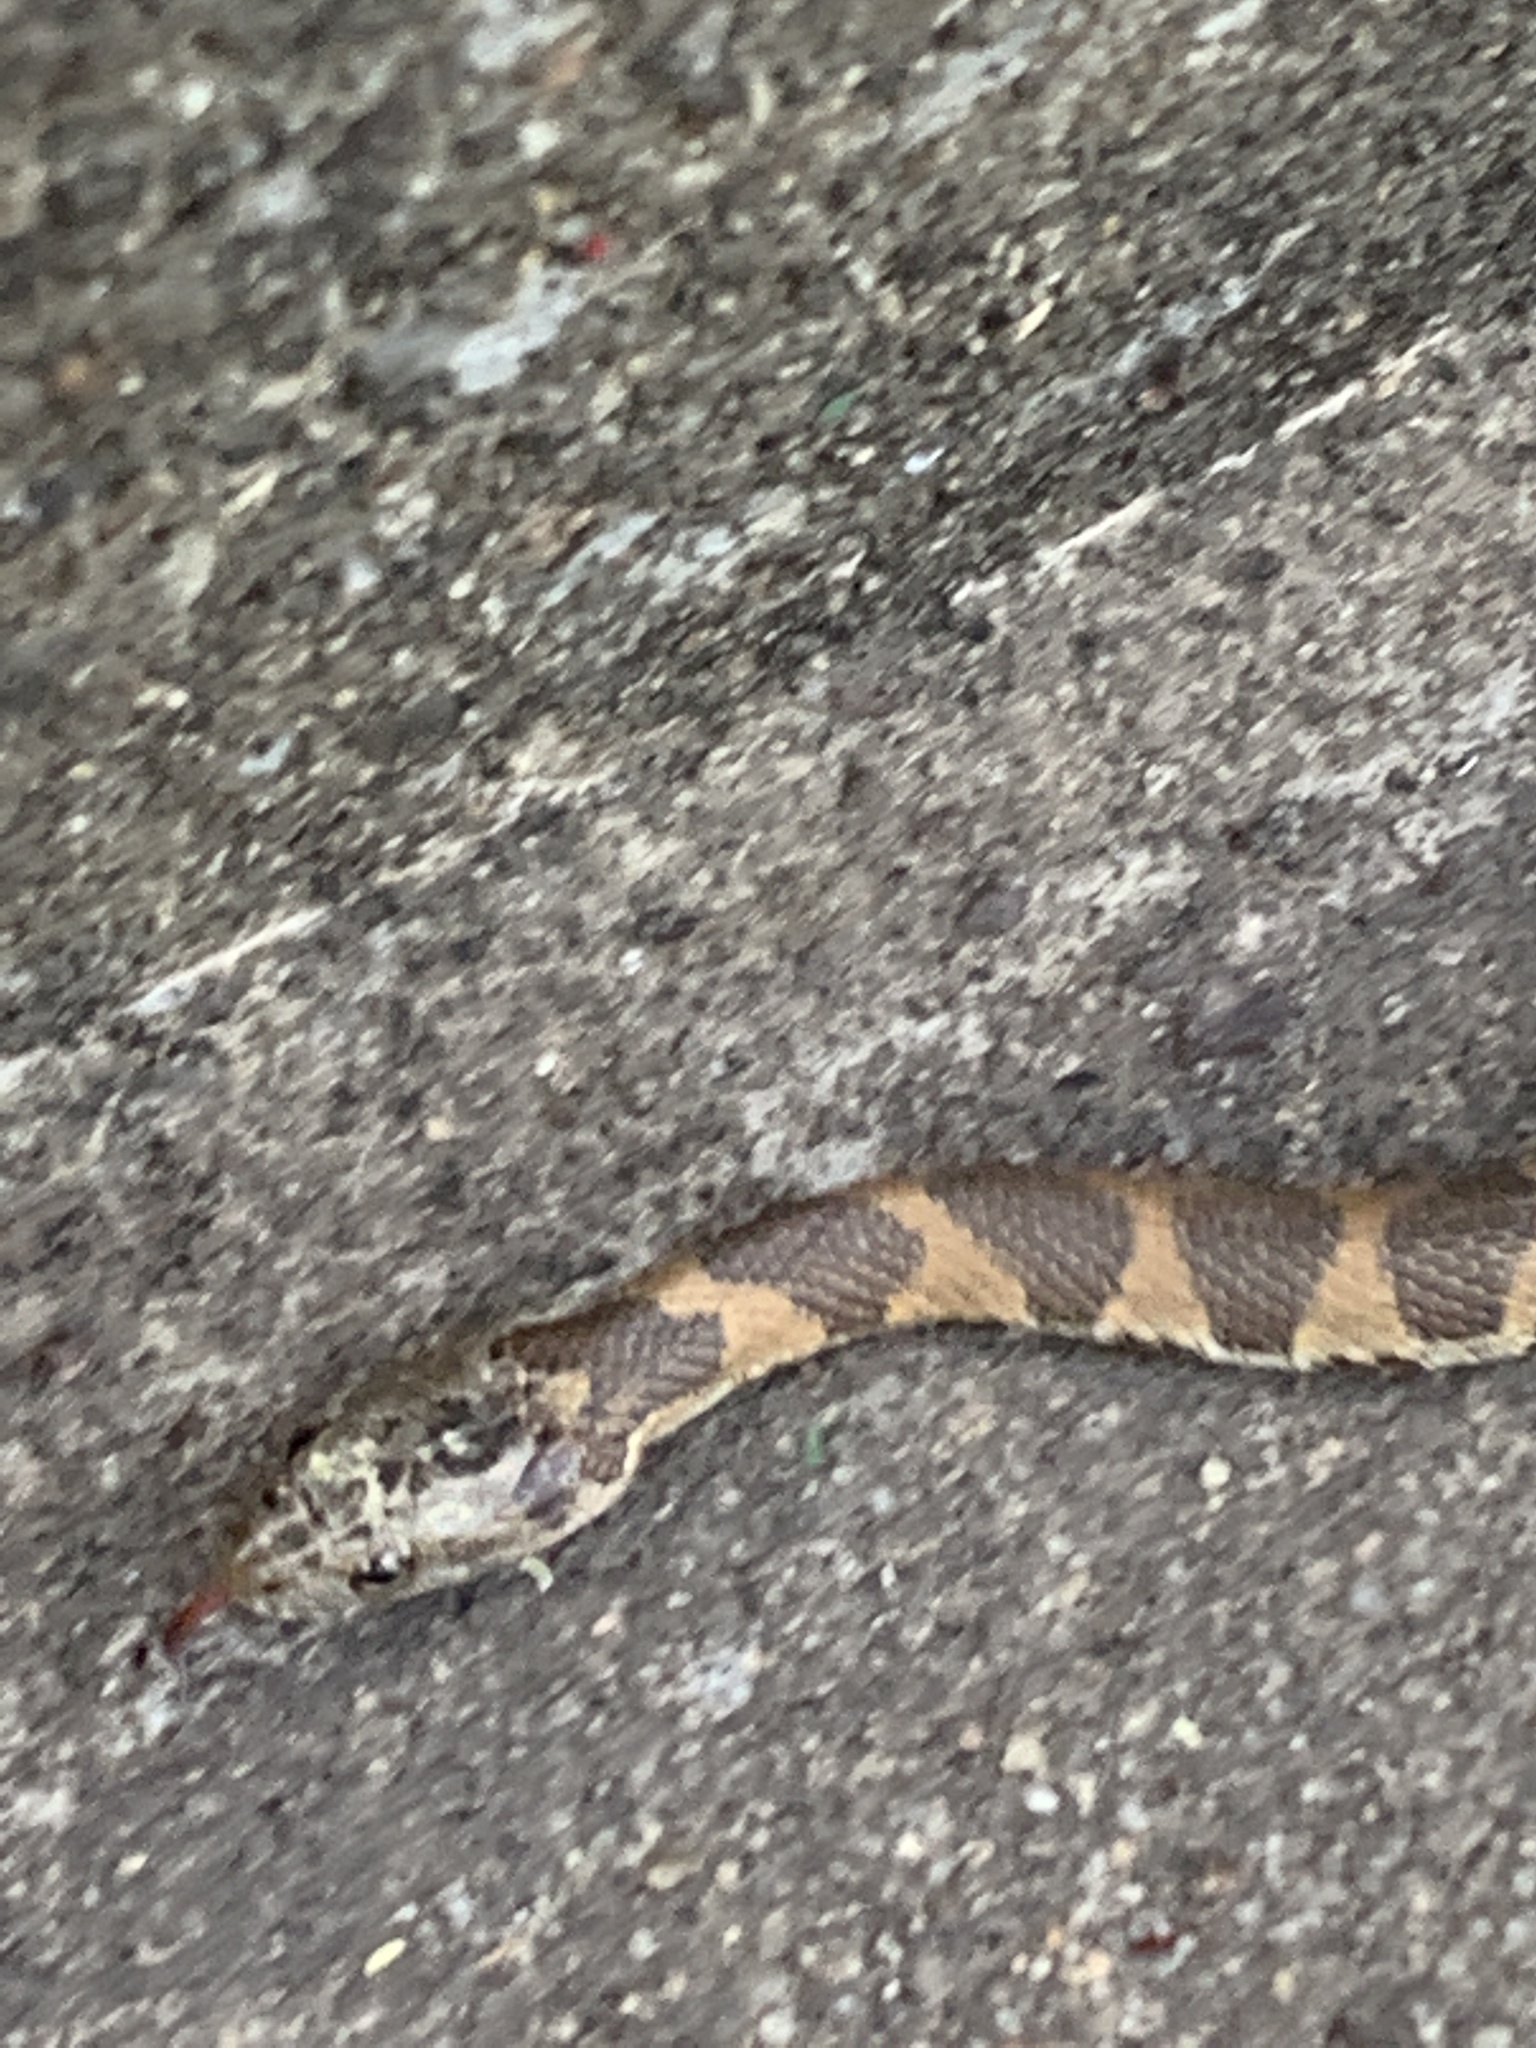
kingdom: Animalia
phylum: Chordata
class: Squamata
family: Colubridae
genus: Nerodia
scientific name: Nerodia sipedon
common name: Northern water snake
